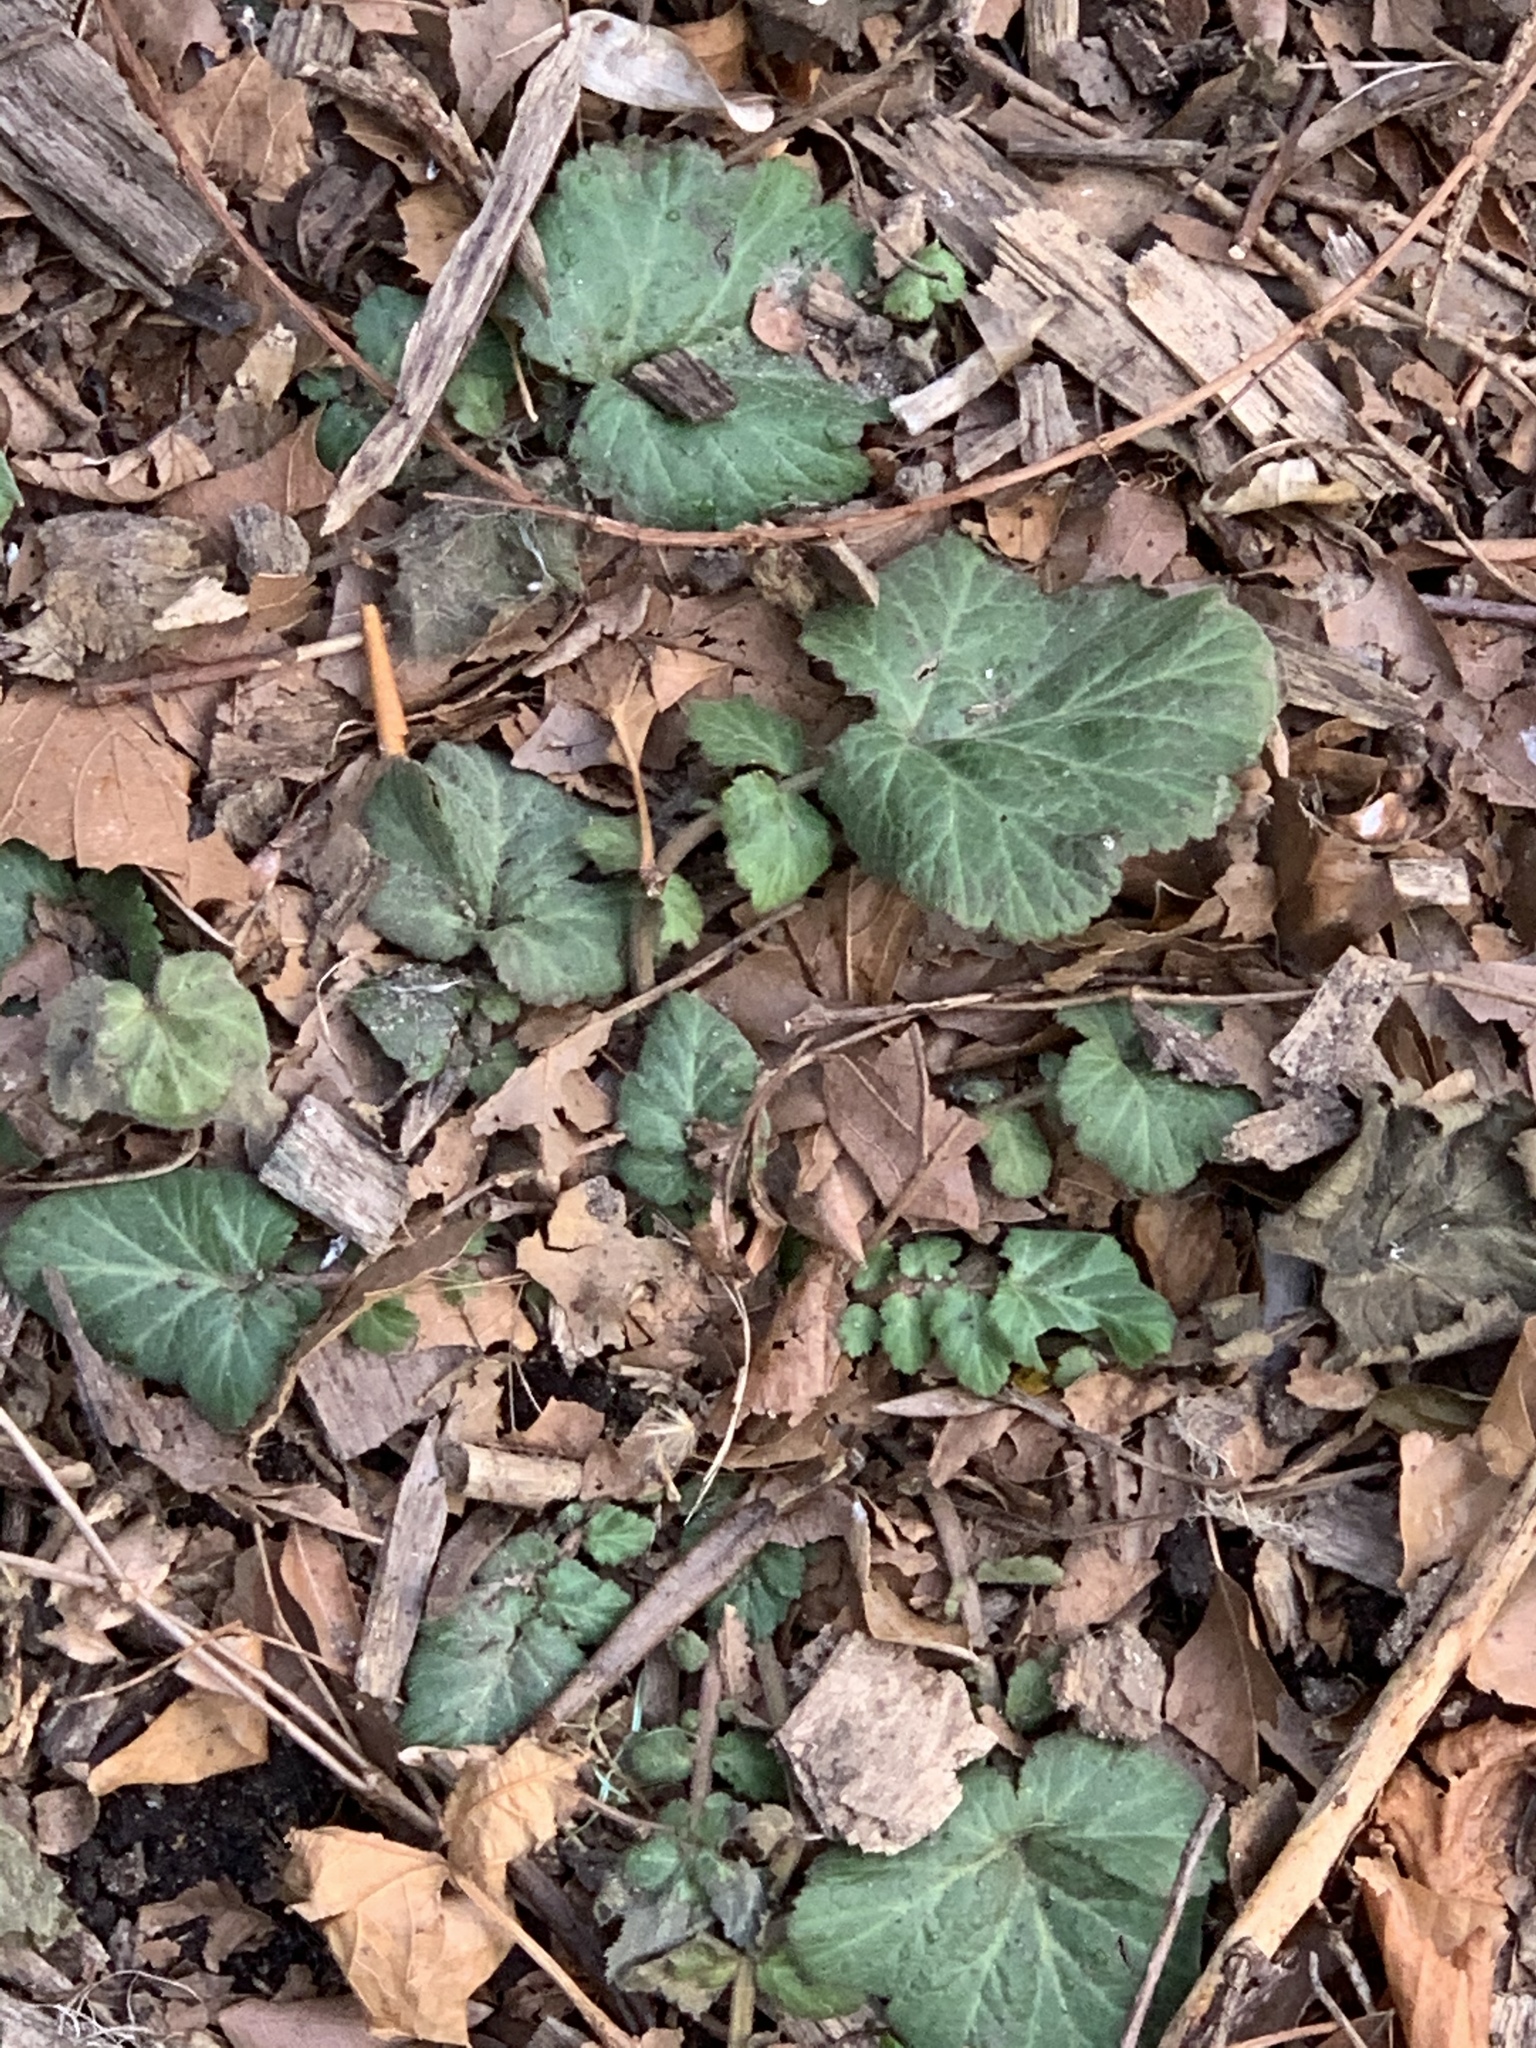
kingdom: Plantae
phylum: Tracheophyta
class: Magnoliopsida
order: Rosales
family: Rosaceae
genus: Geum
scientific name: Geum canadense
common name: White avens
